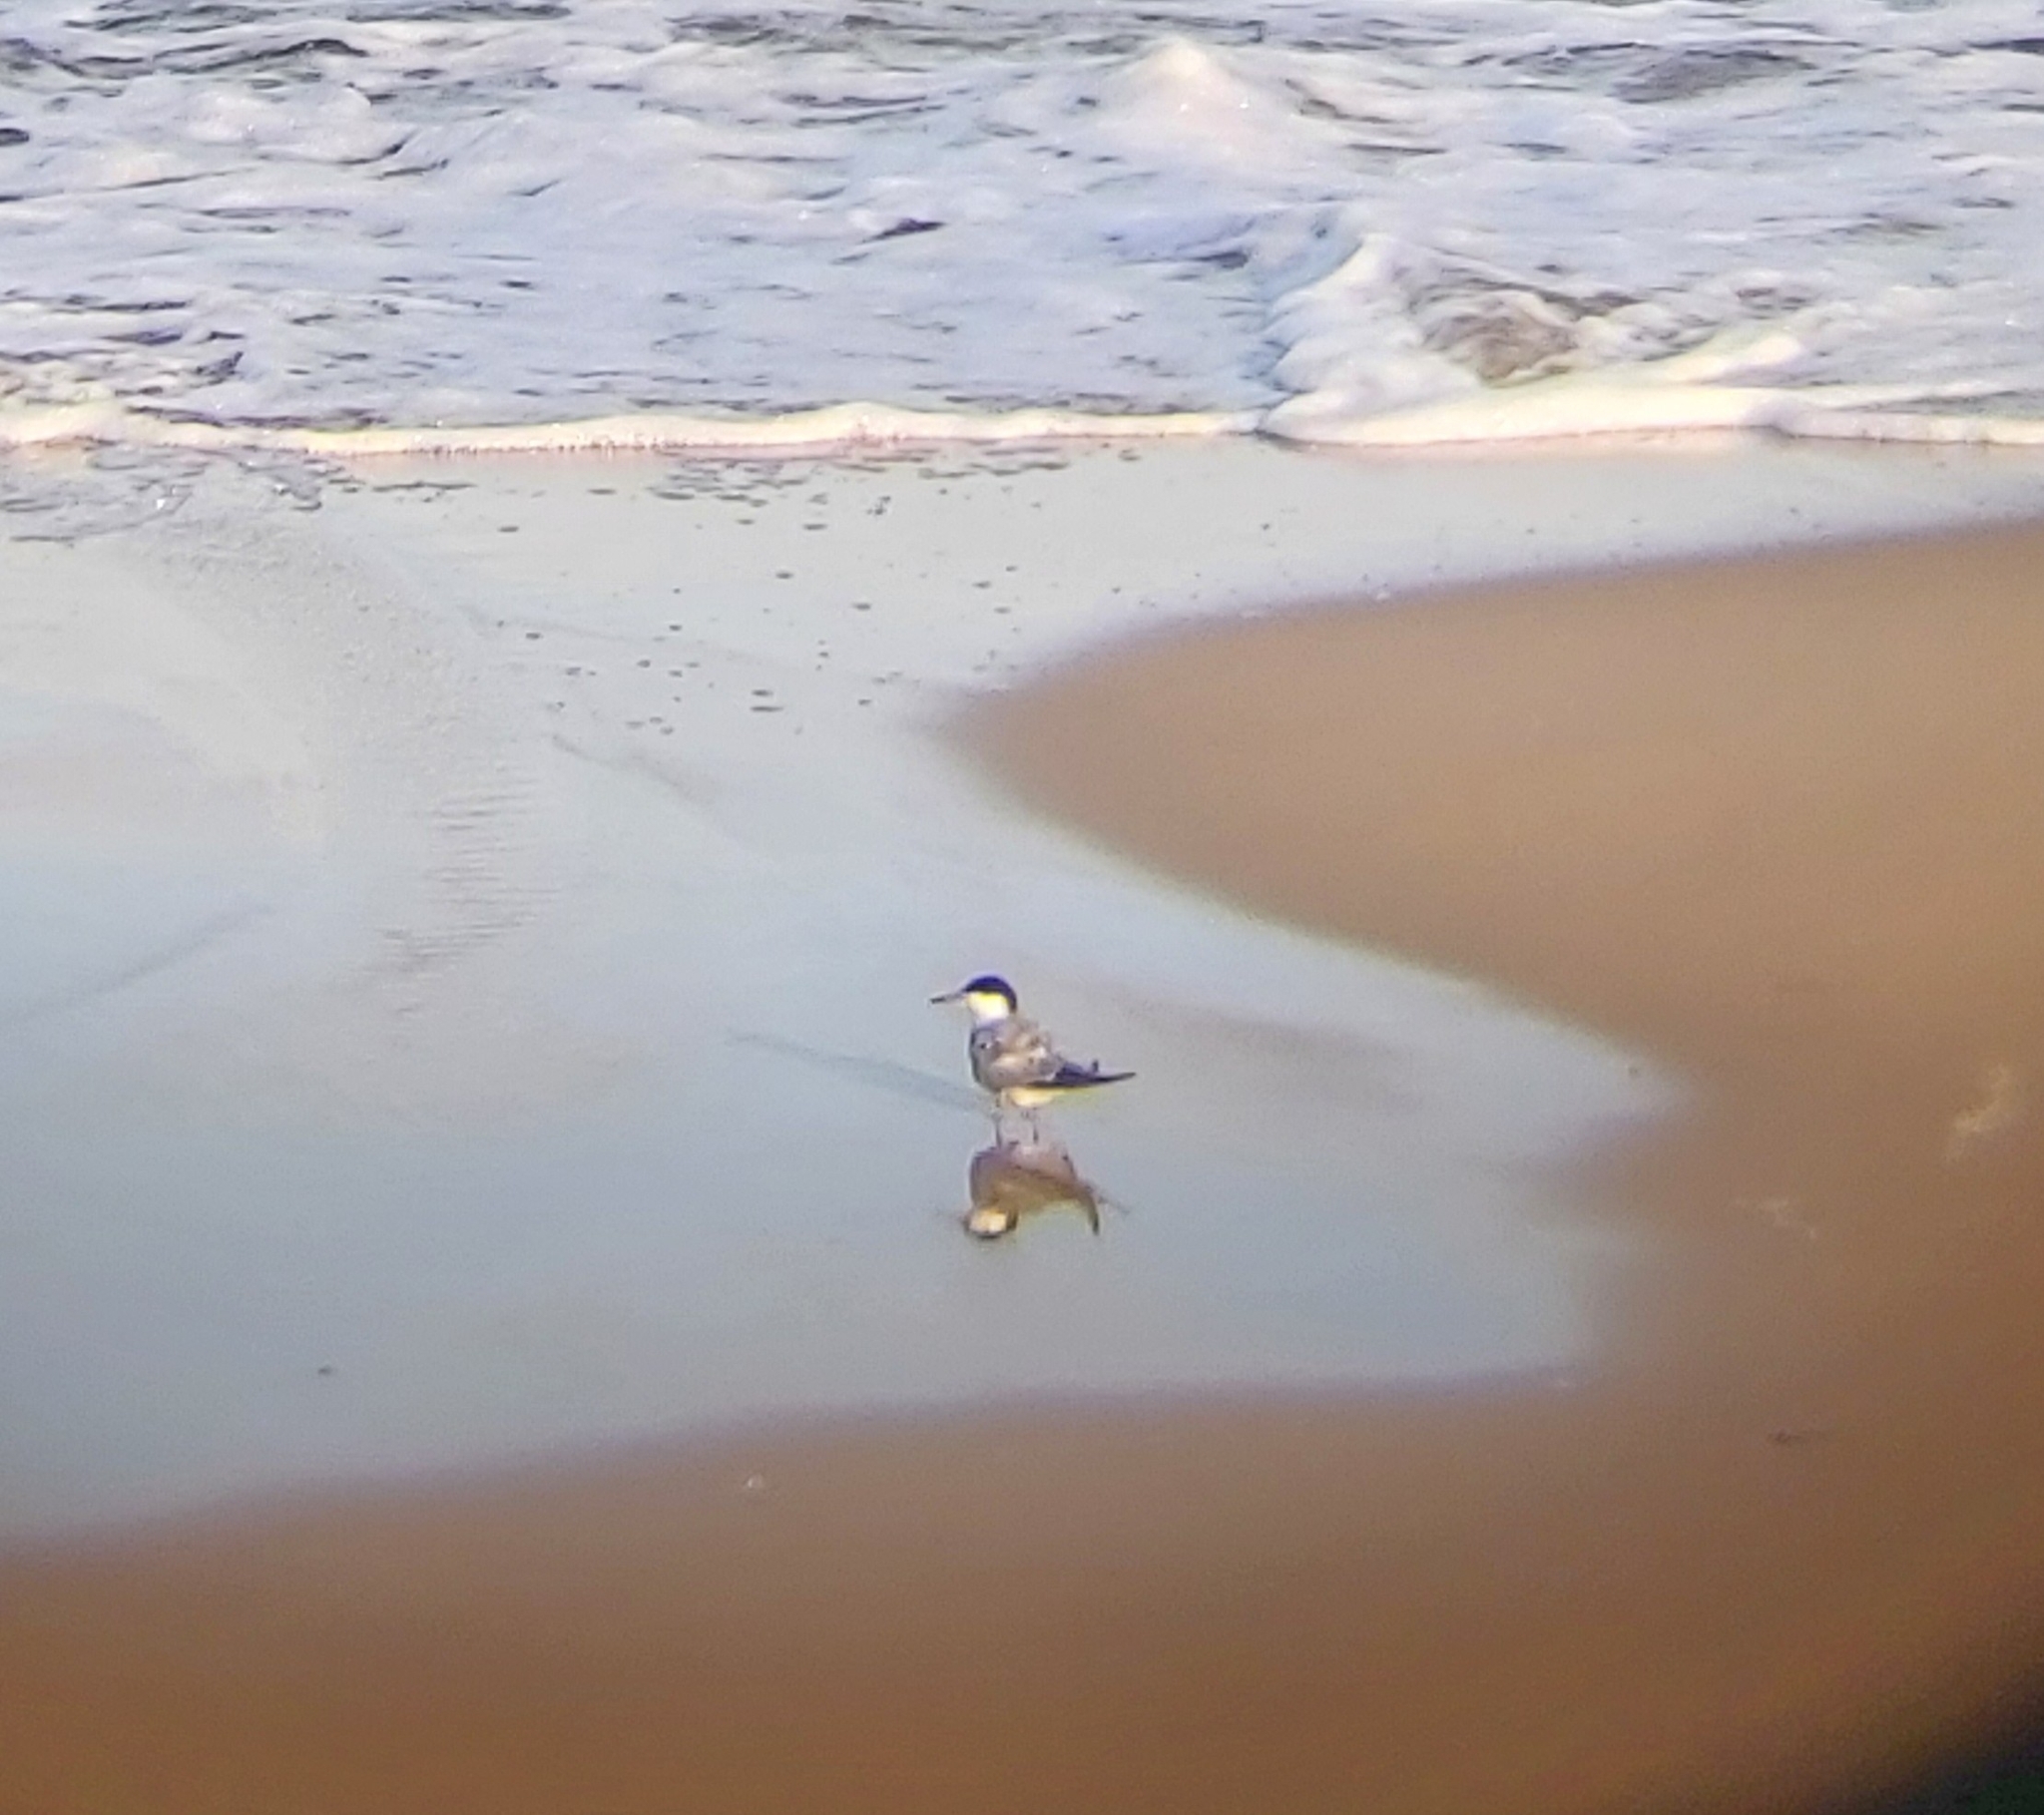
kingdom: Animalia
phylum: Chordata
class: Aves
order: Charadriiformes
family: Laridae
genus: Sterna
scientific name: Sterna hirundo
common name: Common tern
